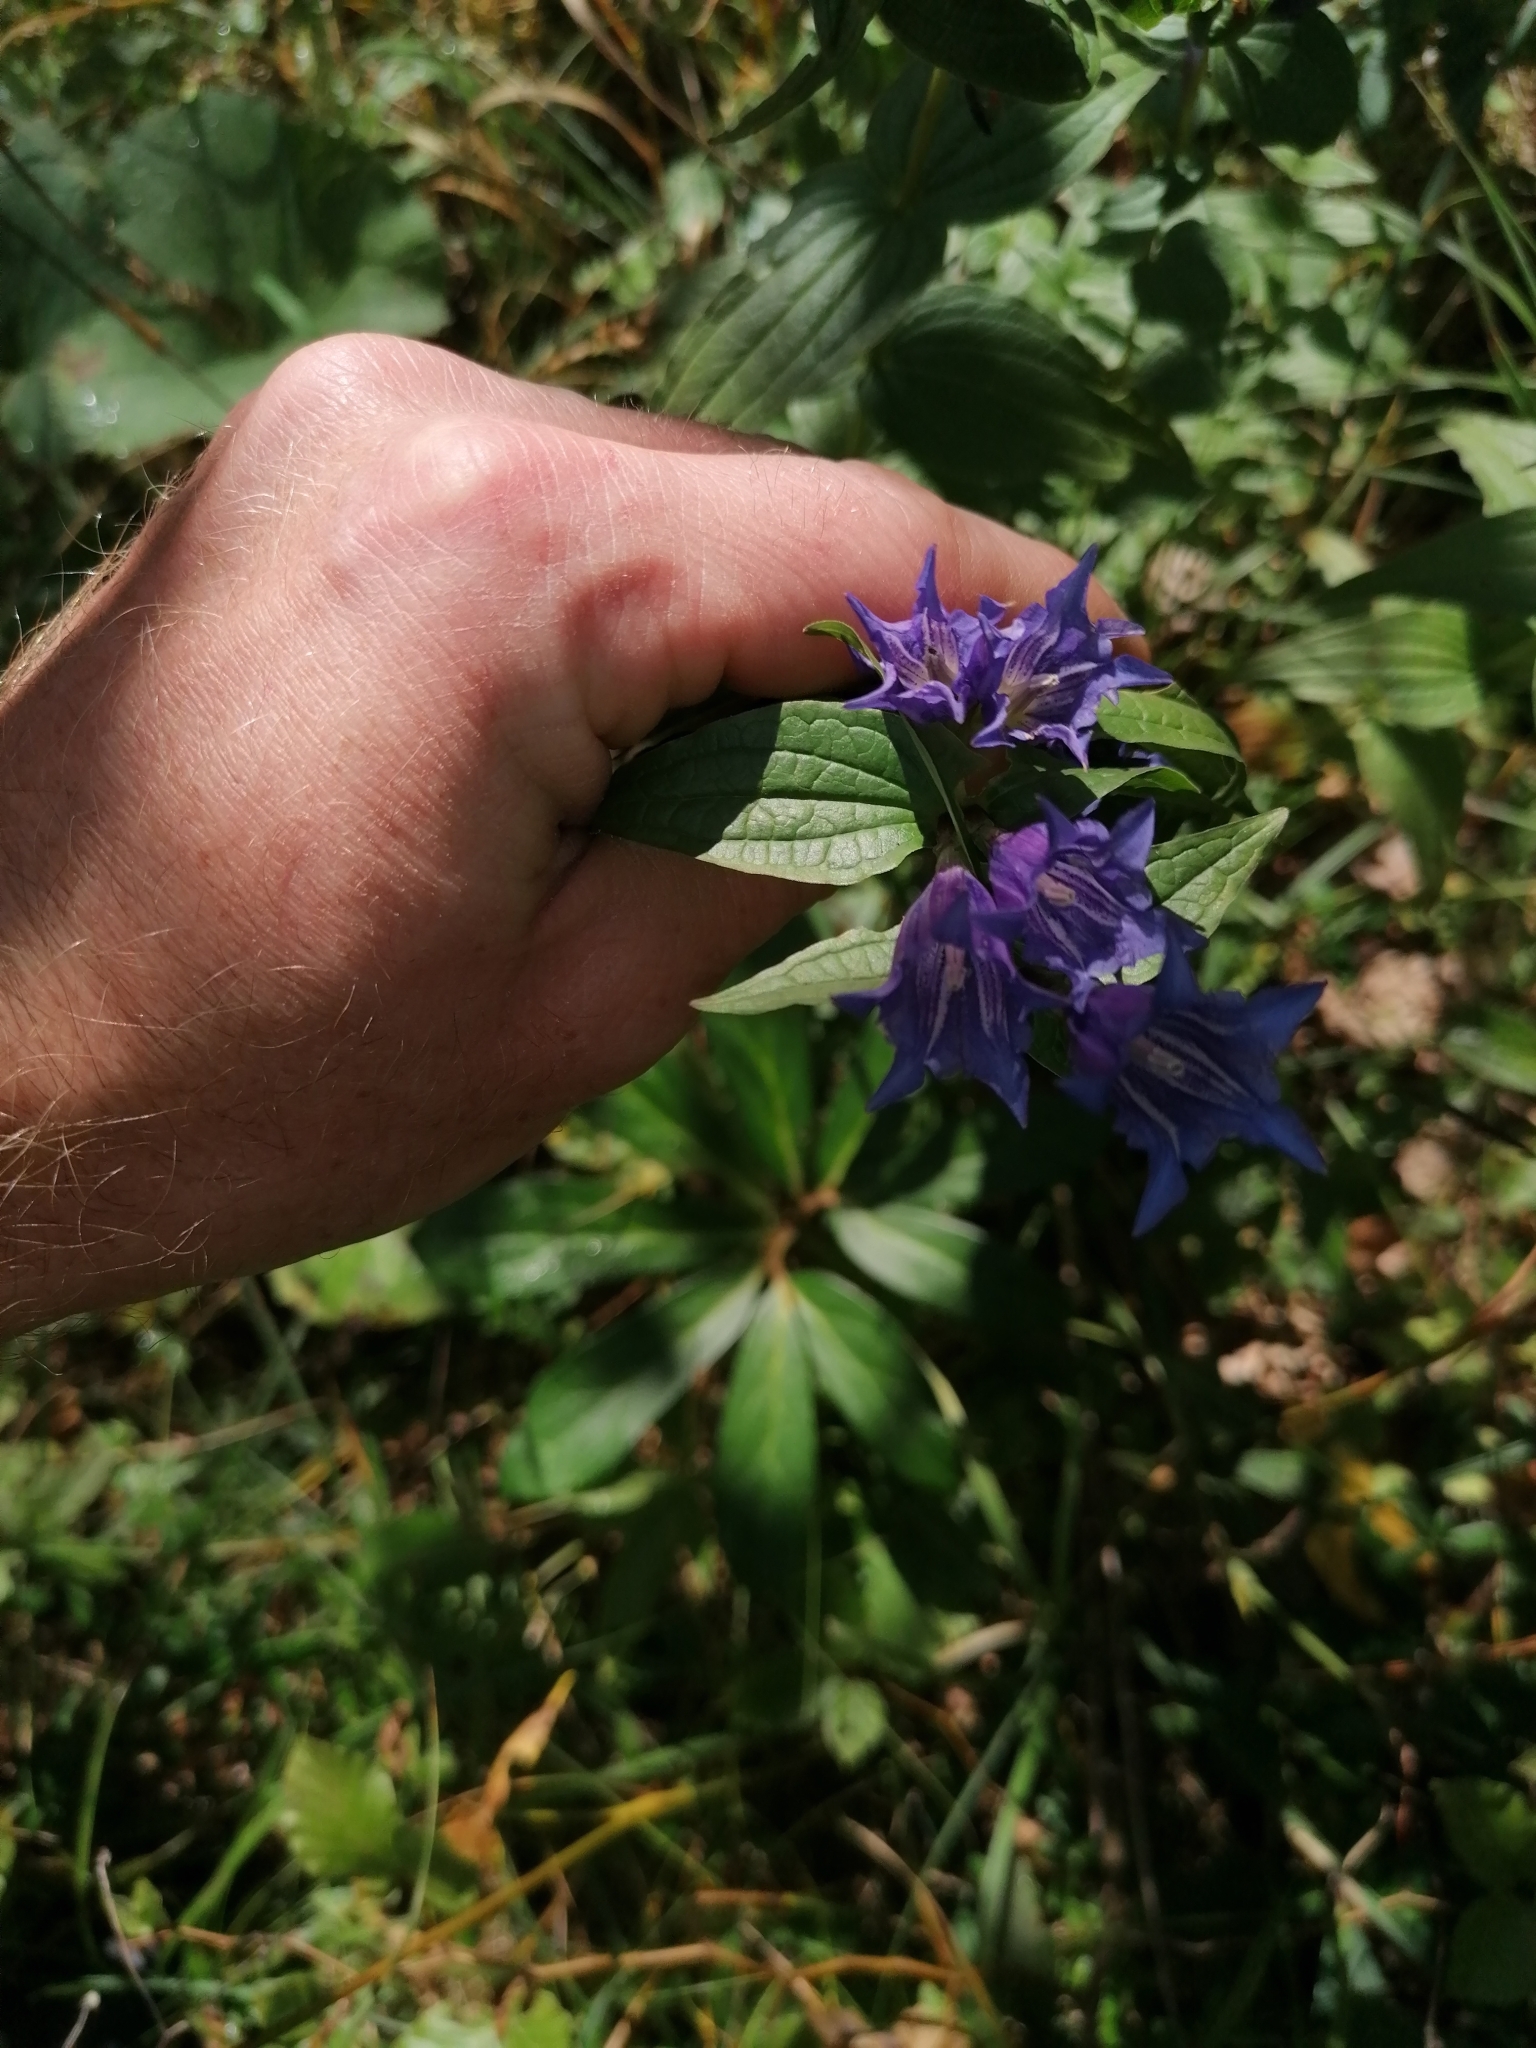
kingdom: Plantae
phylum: Tracheophyta
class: Magnoliopsida
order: Gentianales
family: Gentianaceae
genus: Gentiana
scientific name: Gentiana asclepiadea
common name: Willow gentian
